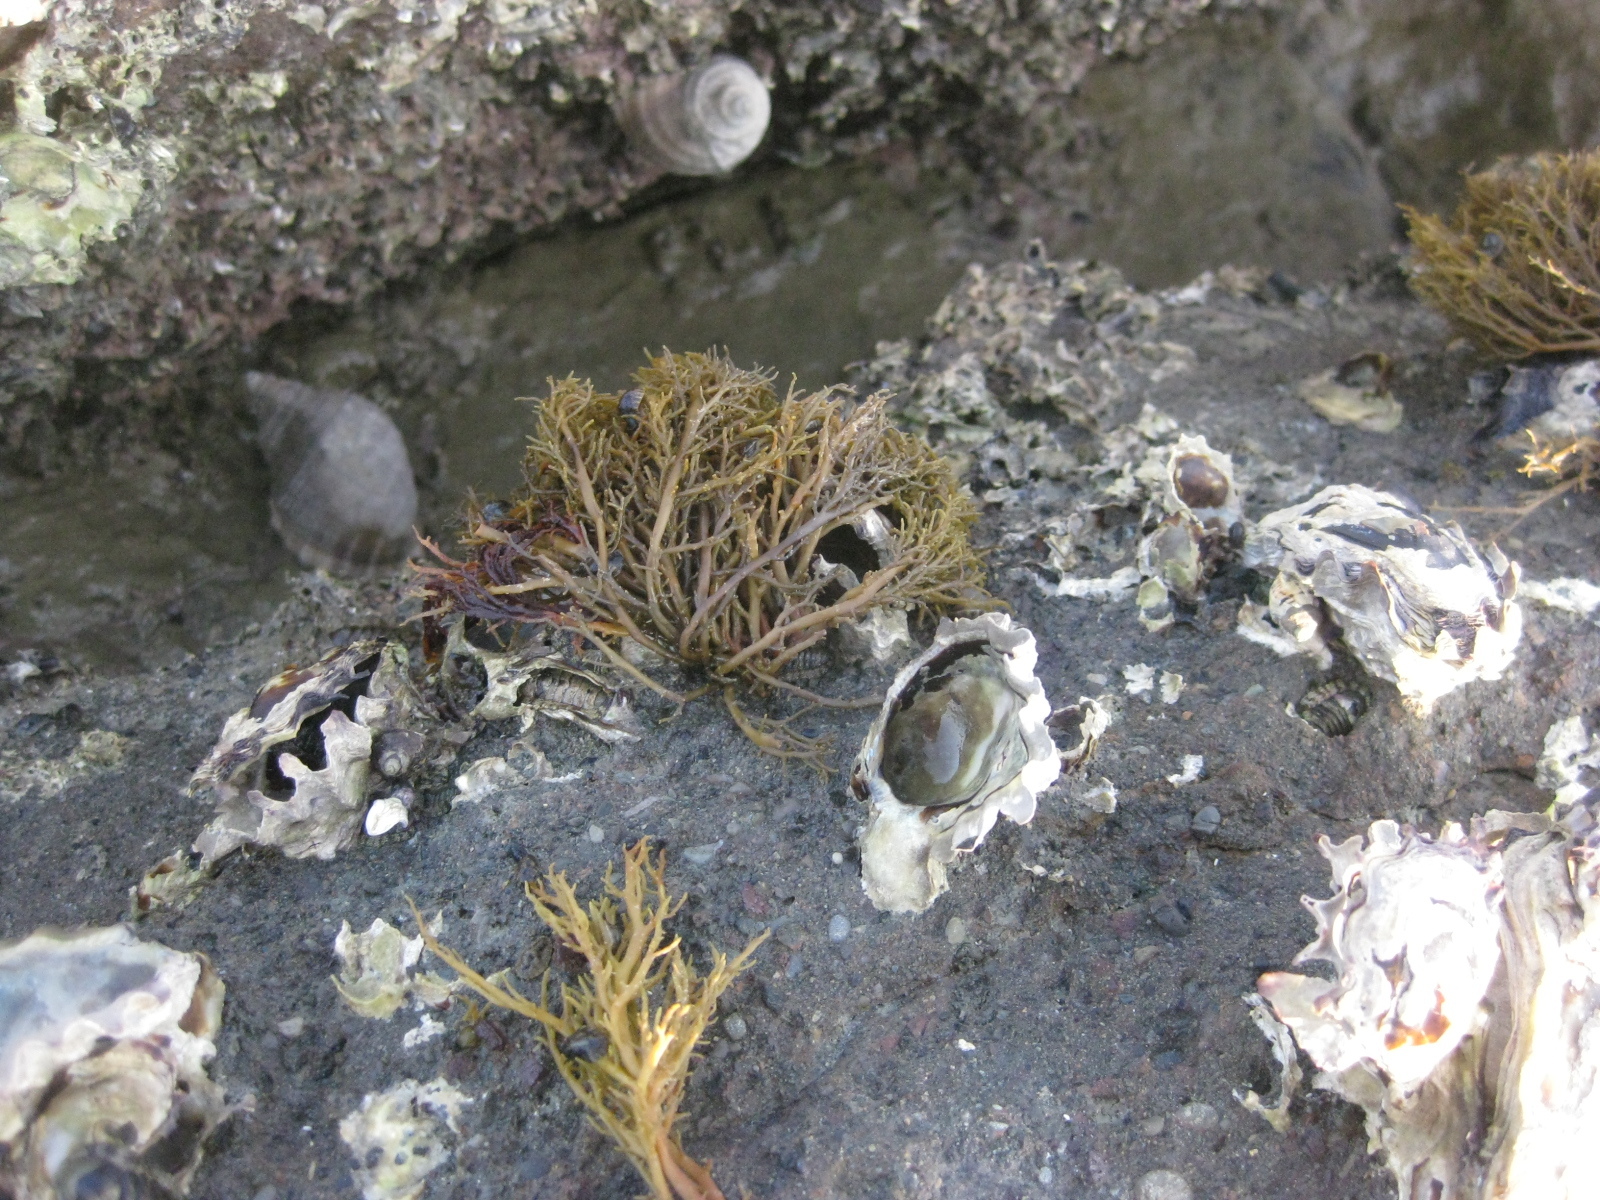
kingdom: Chromista
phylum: Ochrophyta
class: Phaeophyceae
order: Scytothamnales
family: Scytothamnaceae
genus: Scytothamnus
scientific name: Scytothamnus australis
